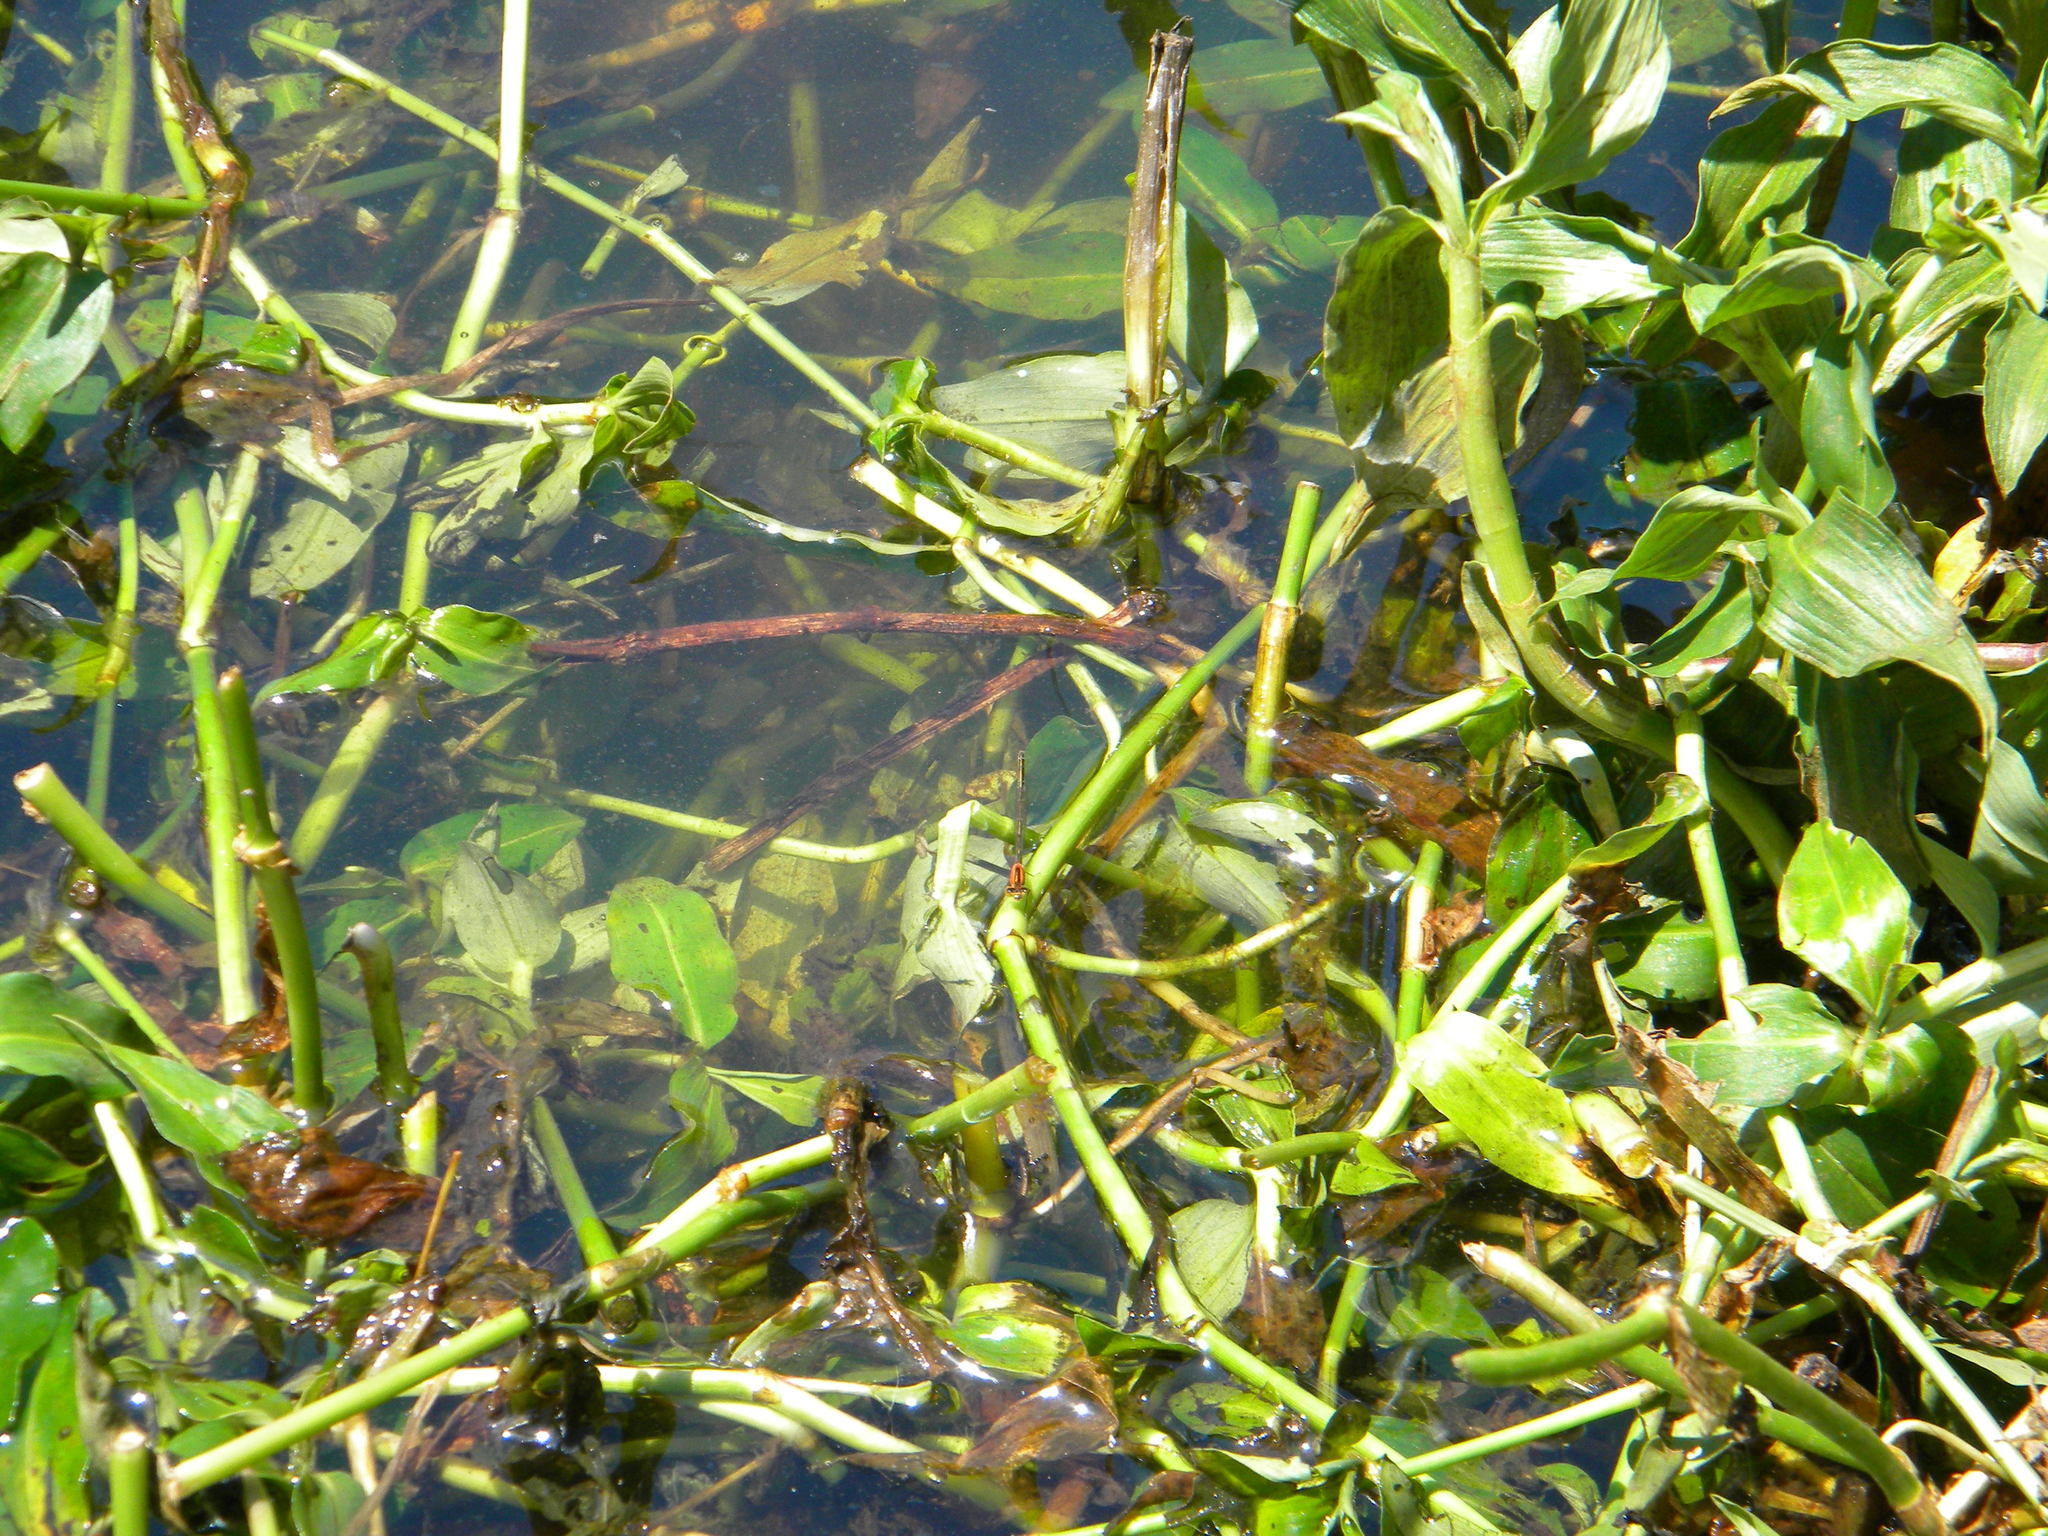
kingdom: Animalia
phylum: Arthropoda
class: Insecta
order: Odonata
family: Coenagrionidae
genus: Ischnura
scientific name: Ischnura senegalensis
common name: Tropical bluetail
